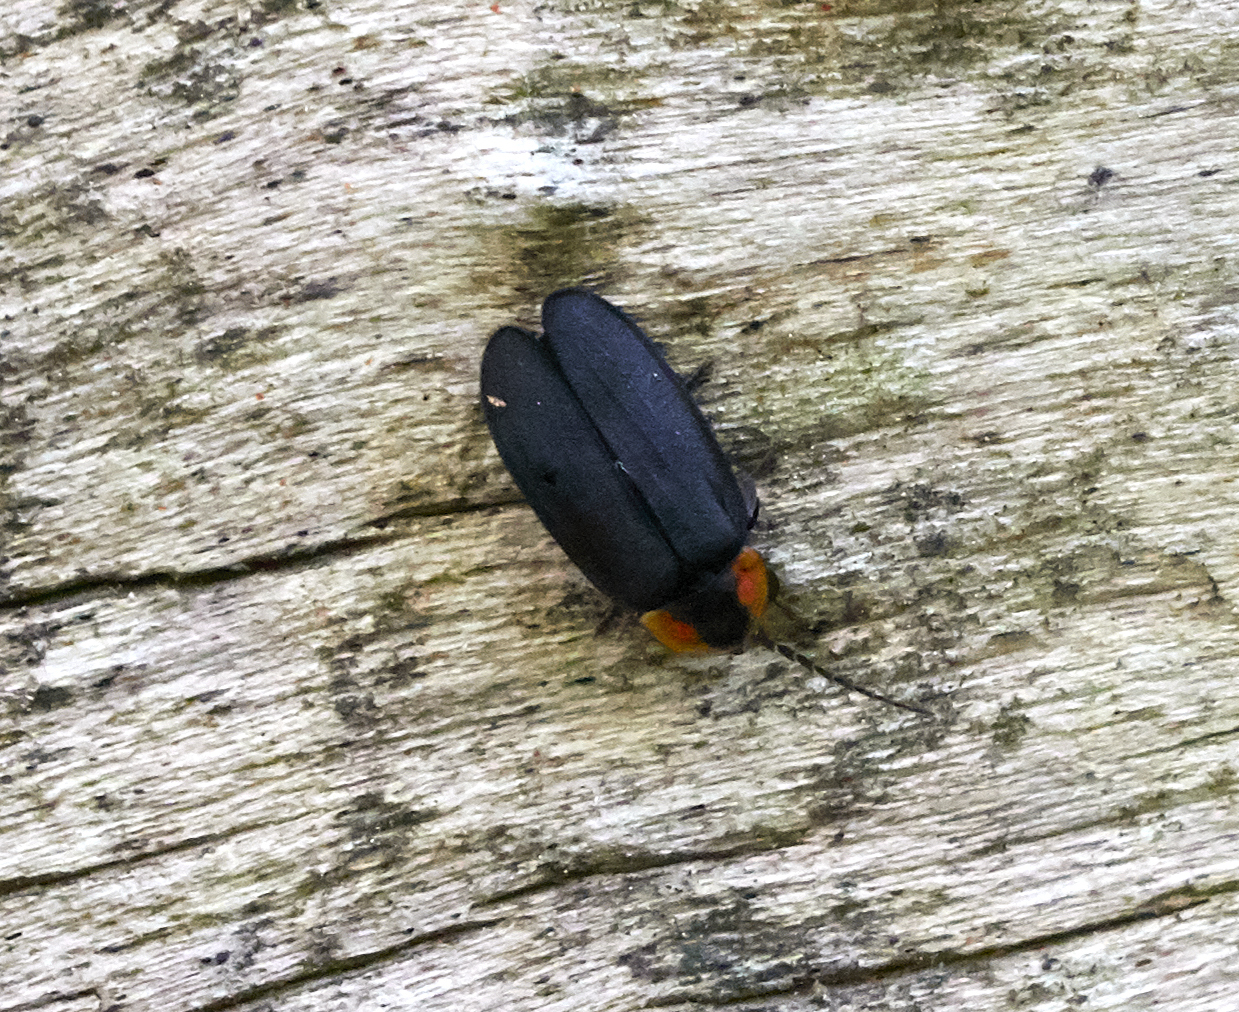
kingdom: Animalia
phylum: Arthropoda
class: Insecta
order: Coleoptera
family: Lampyridae
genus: Lucidota
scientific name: Lucidota atra
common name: Black firefly
